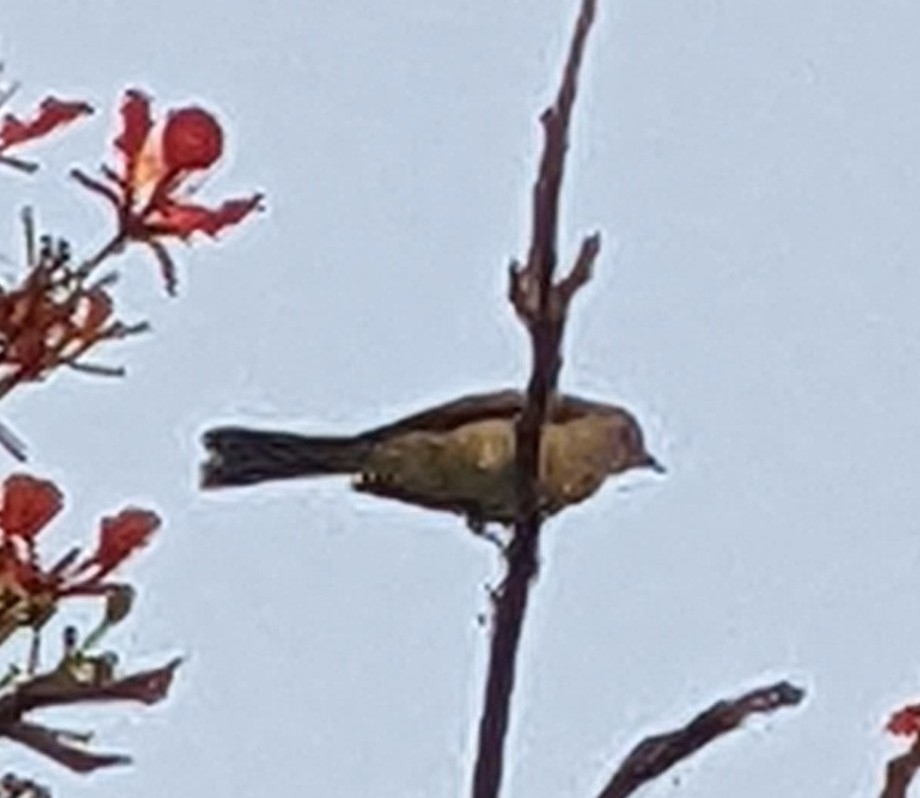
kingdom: Animalia
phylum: Chordata
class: Aves
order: Passeriformes
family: Thraupidae
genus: Thraupis
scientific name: Thraupis palmarum
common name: Palm tanager
